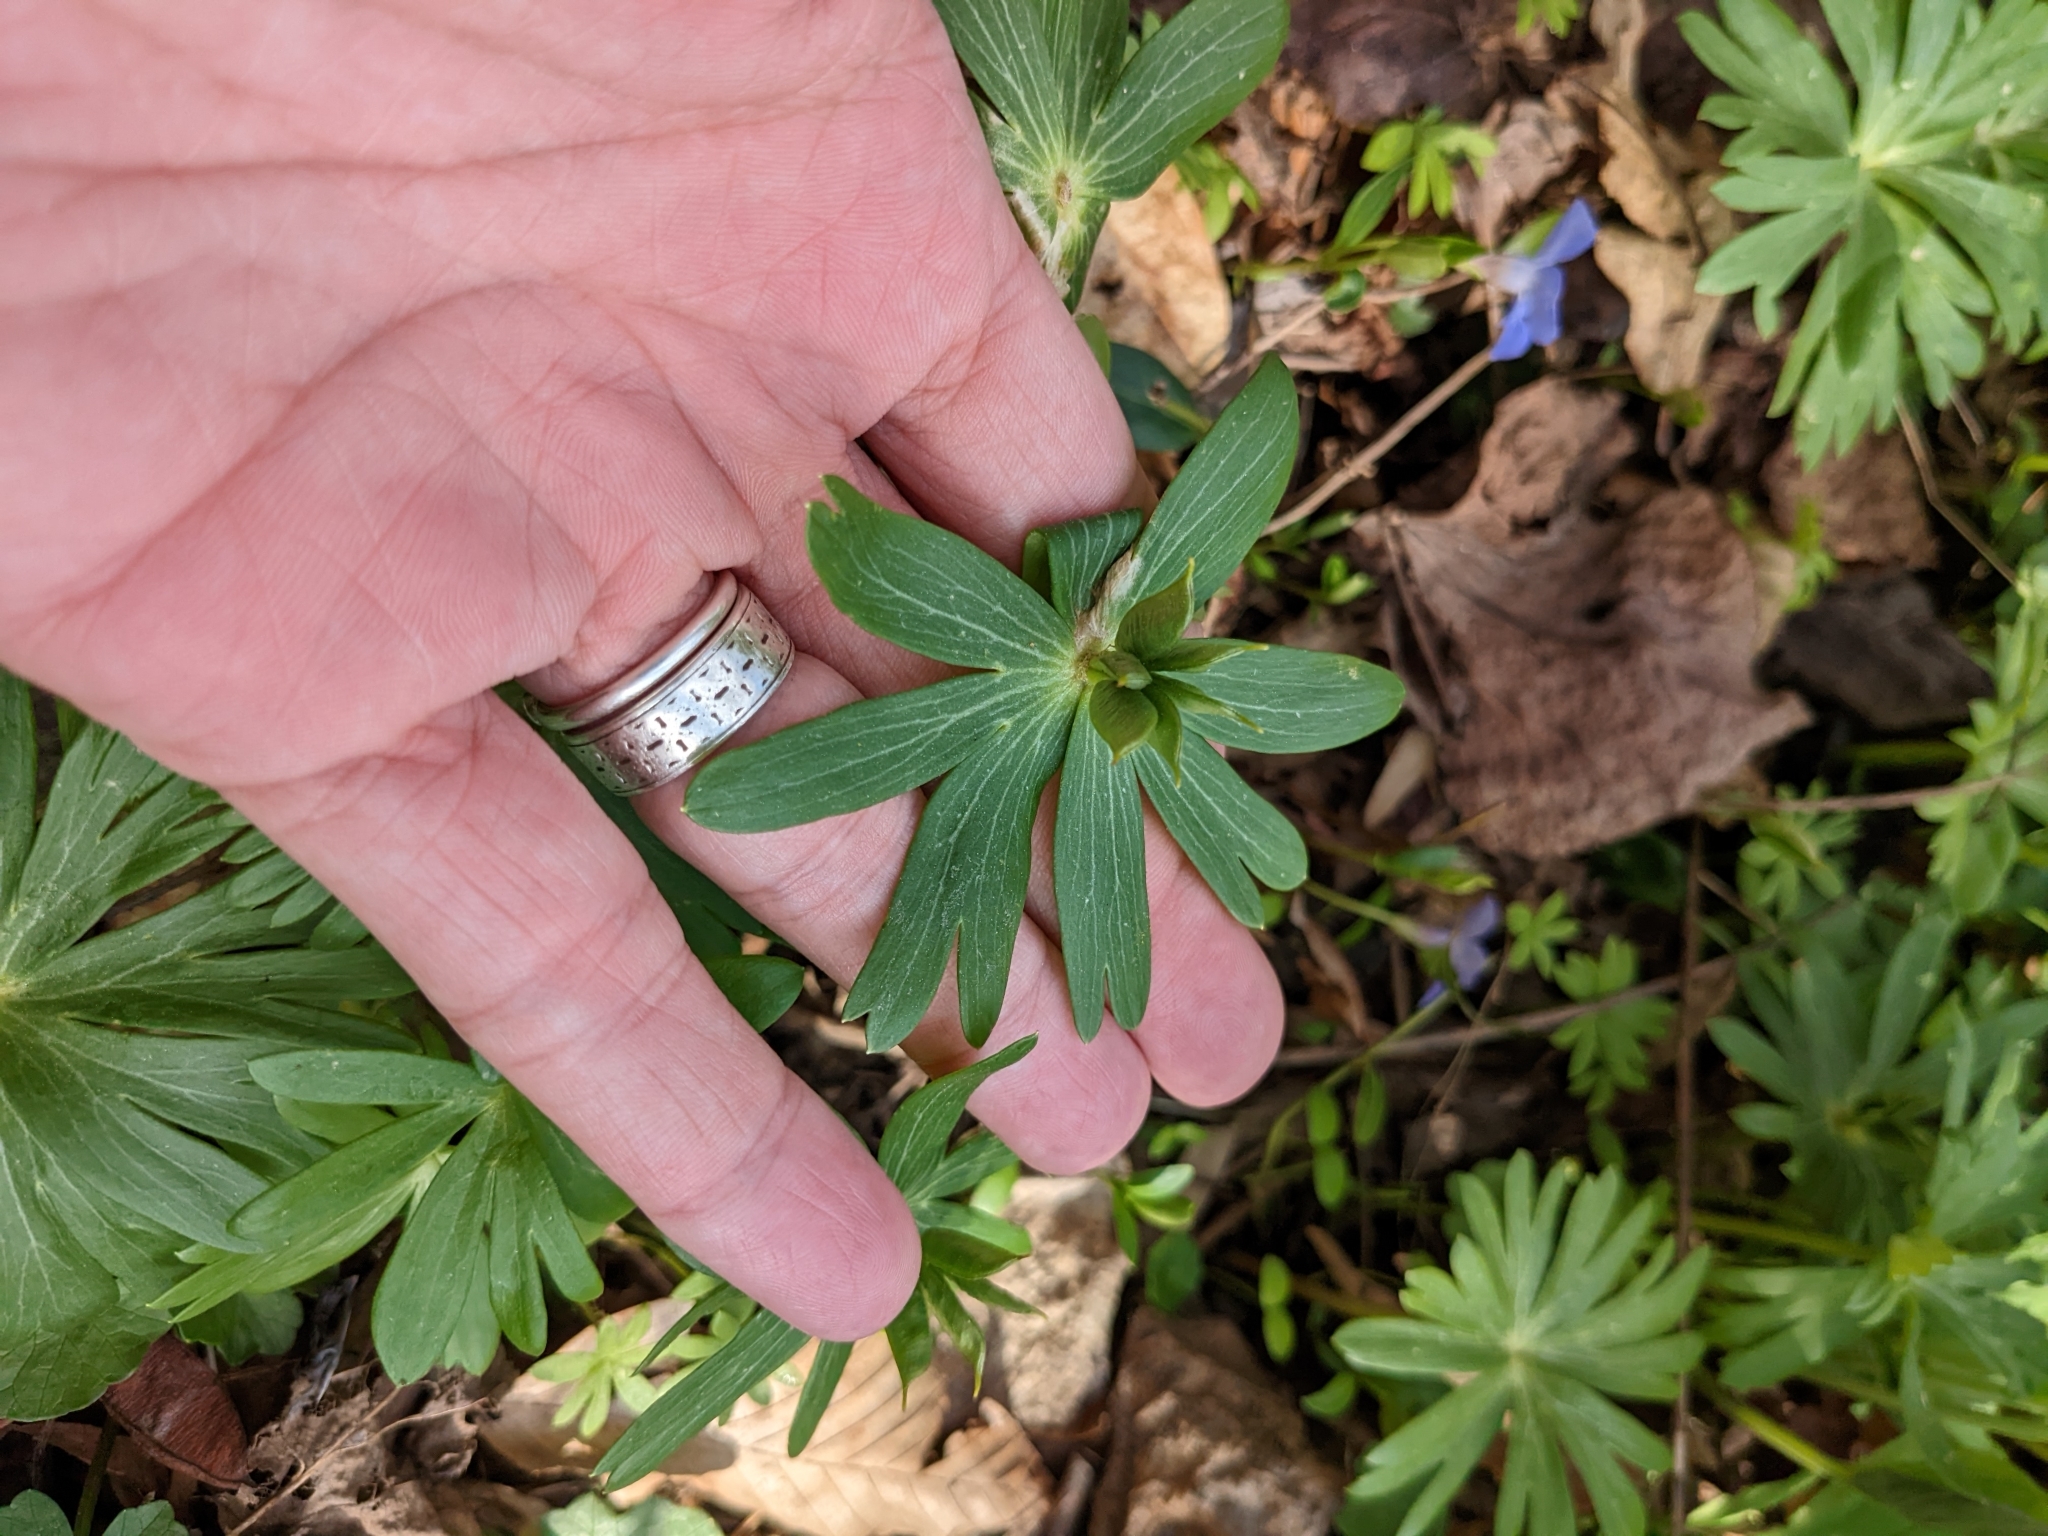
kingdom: Plantae
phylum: Tracheophyta
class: Magnoliopsida
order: Ranunculales
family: Ranunculaceae
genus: Eranthis
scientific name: Eranthis hyemalis
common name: Winter aconite
